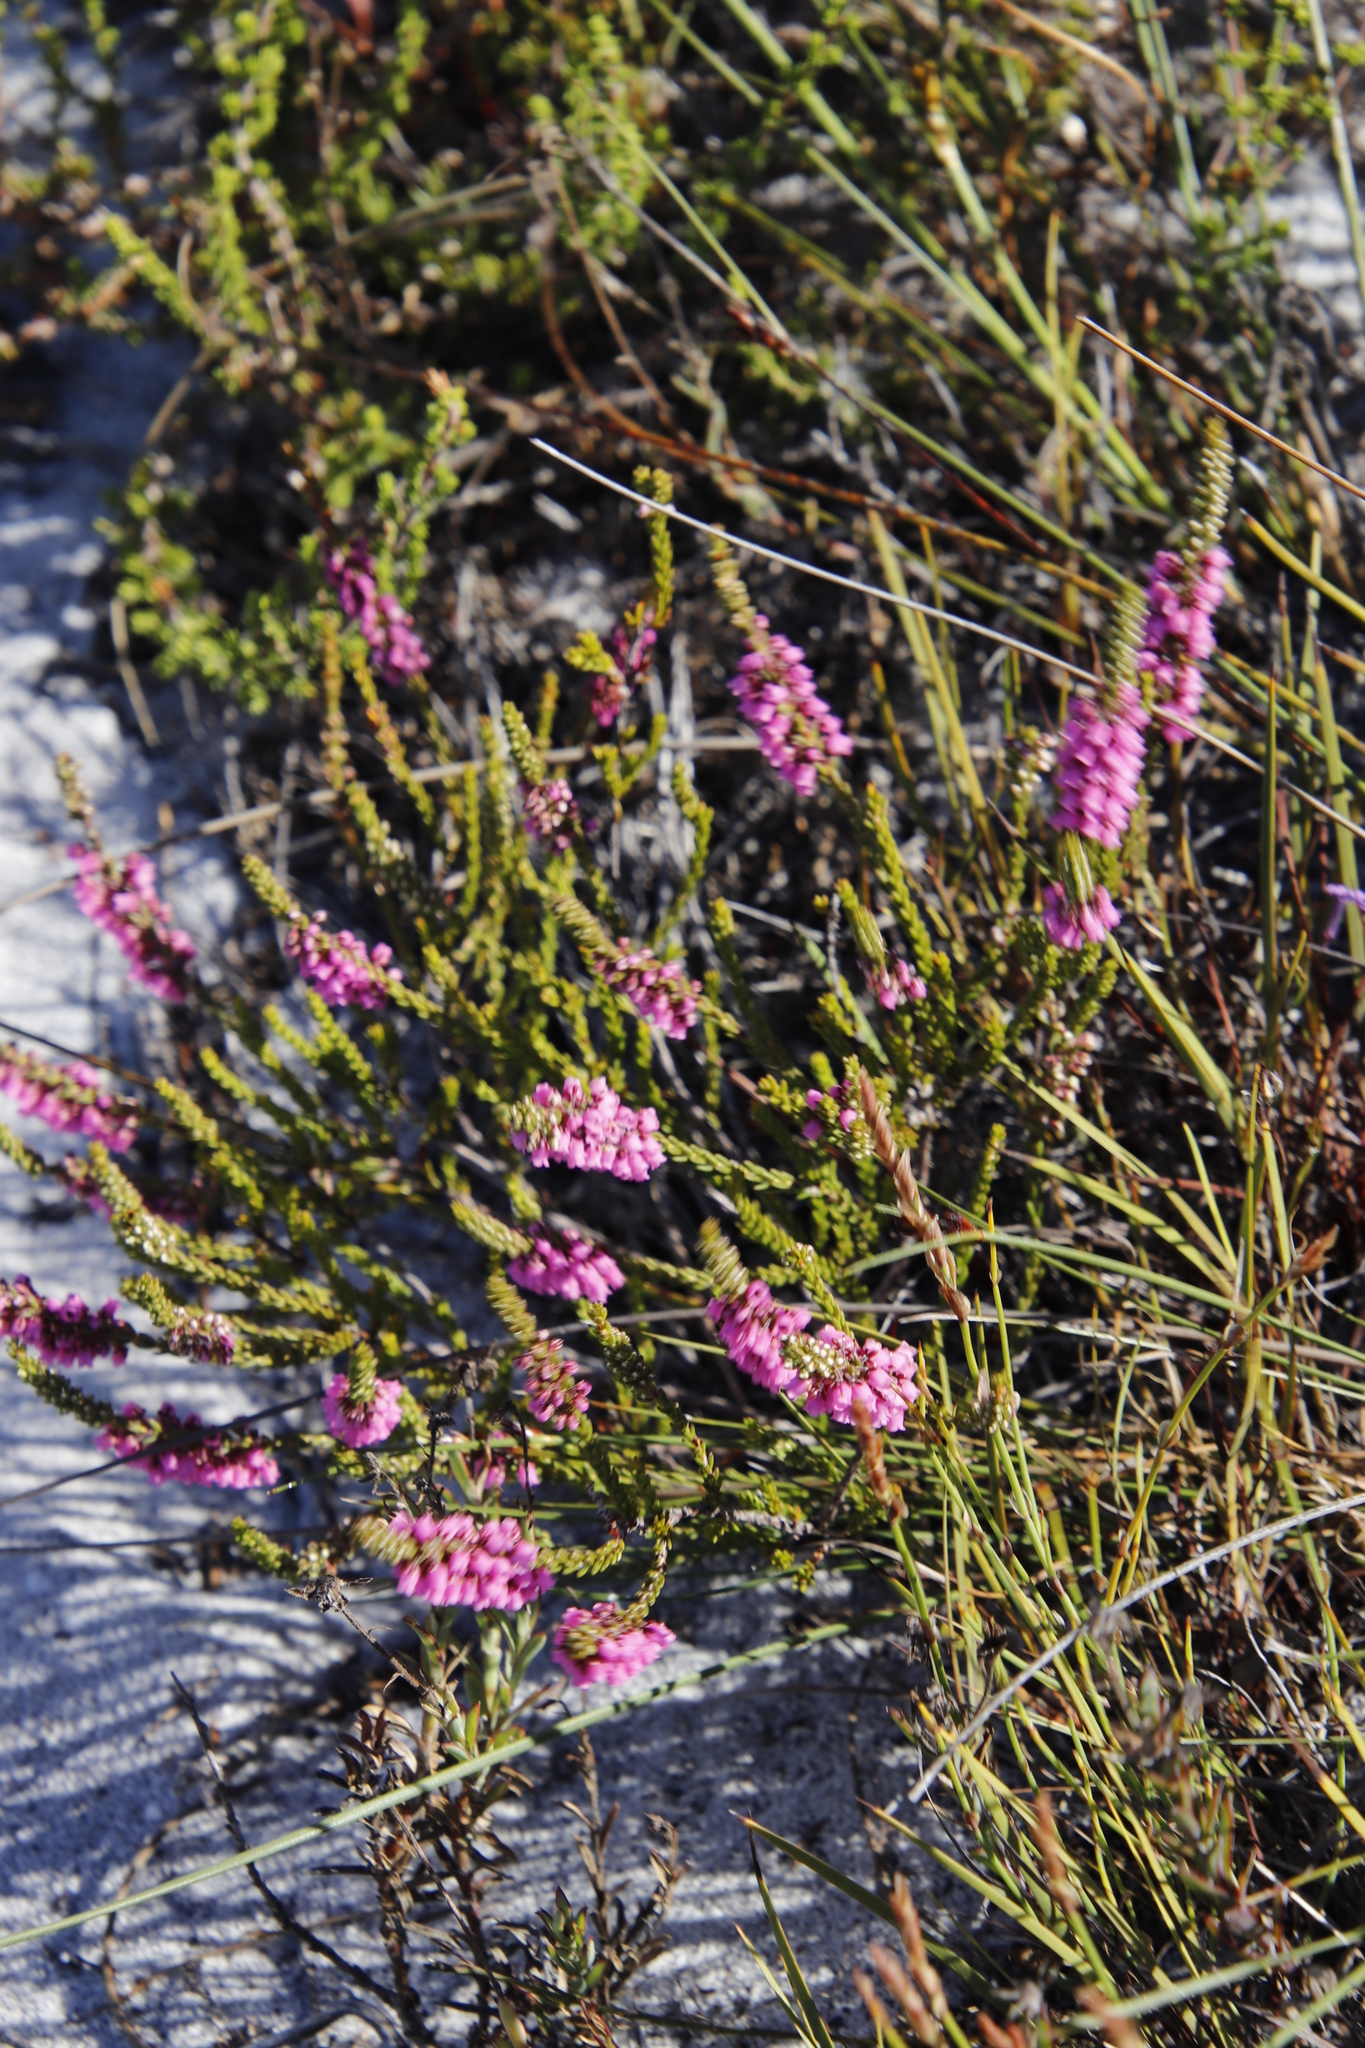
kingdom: Plantae
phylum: Tracheophyta
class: Magnoliopsida
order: Ericales
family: Ericaceae
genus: Erica
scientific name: Erica pulchella
